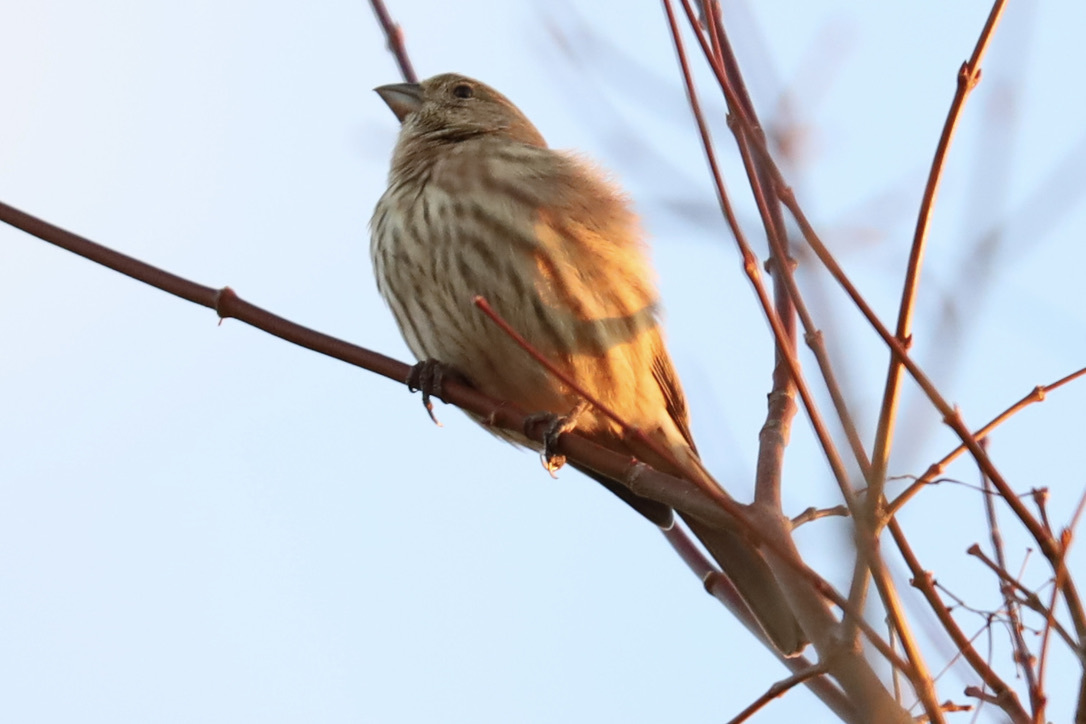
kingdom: Animalia
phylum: Chordata
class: Aves
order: Passeriformes
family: Fringillidae
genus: Haemorhous
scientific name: Haemorhous mexicanus
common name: House finch
